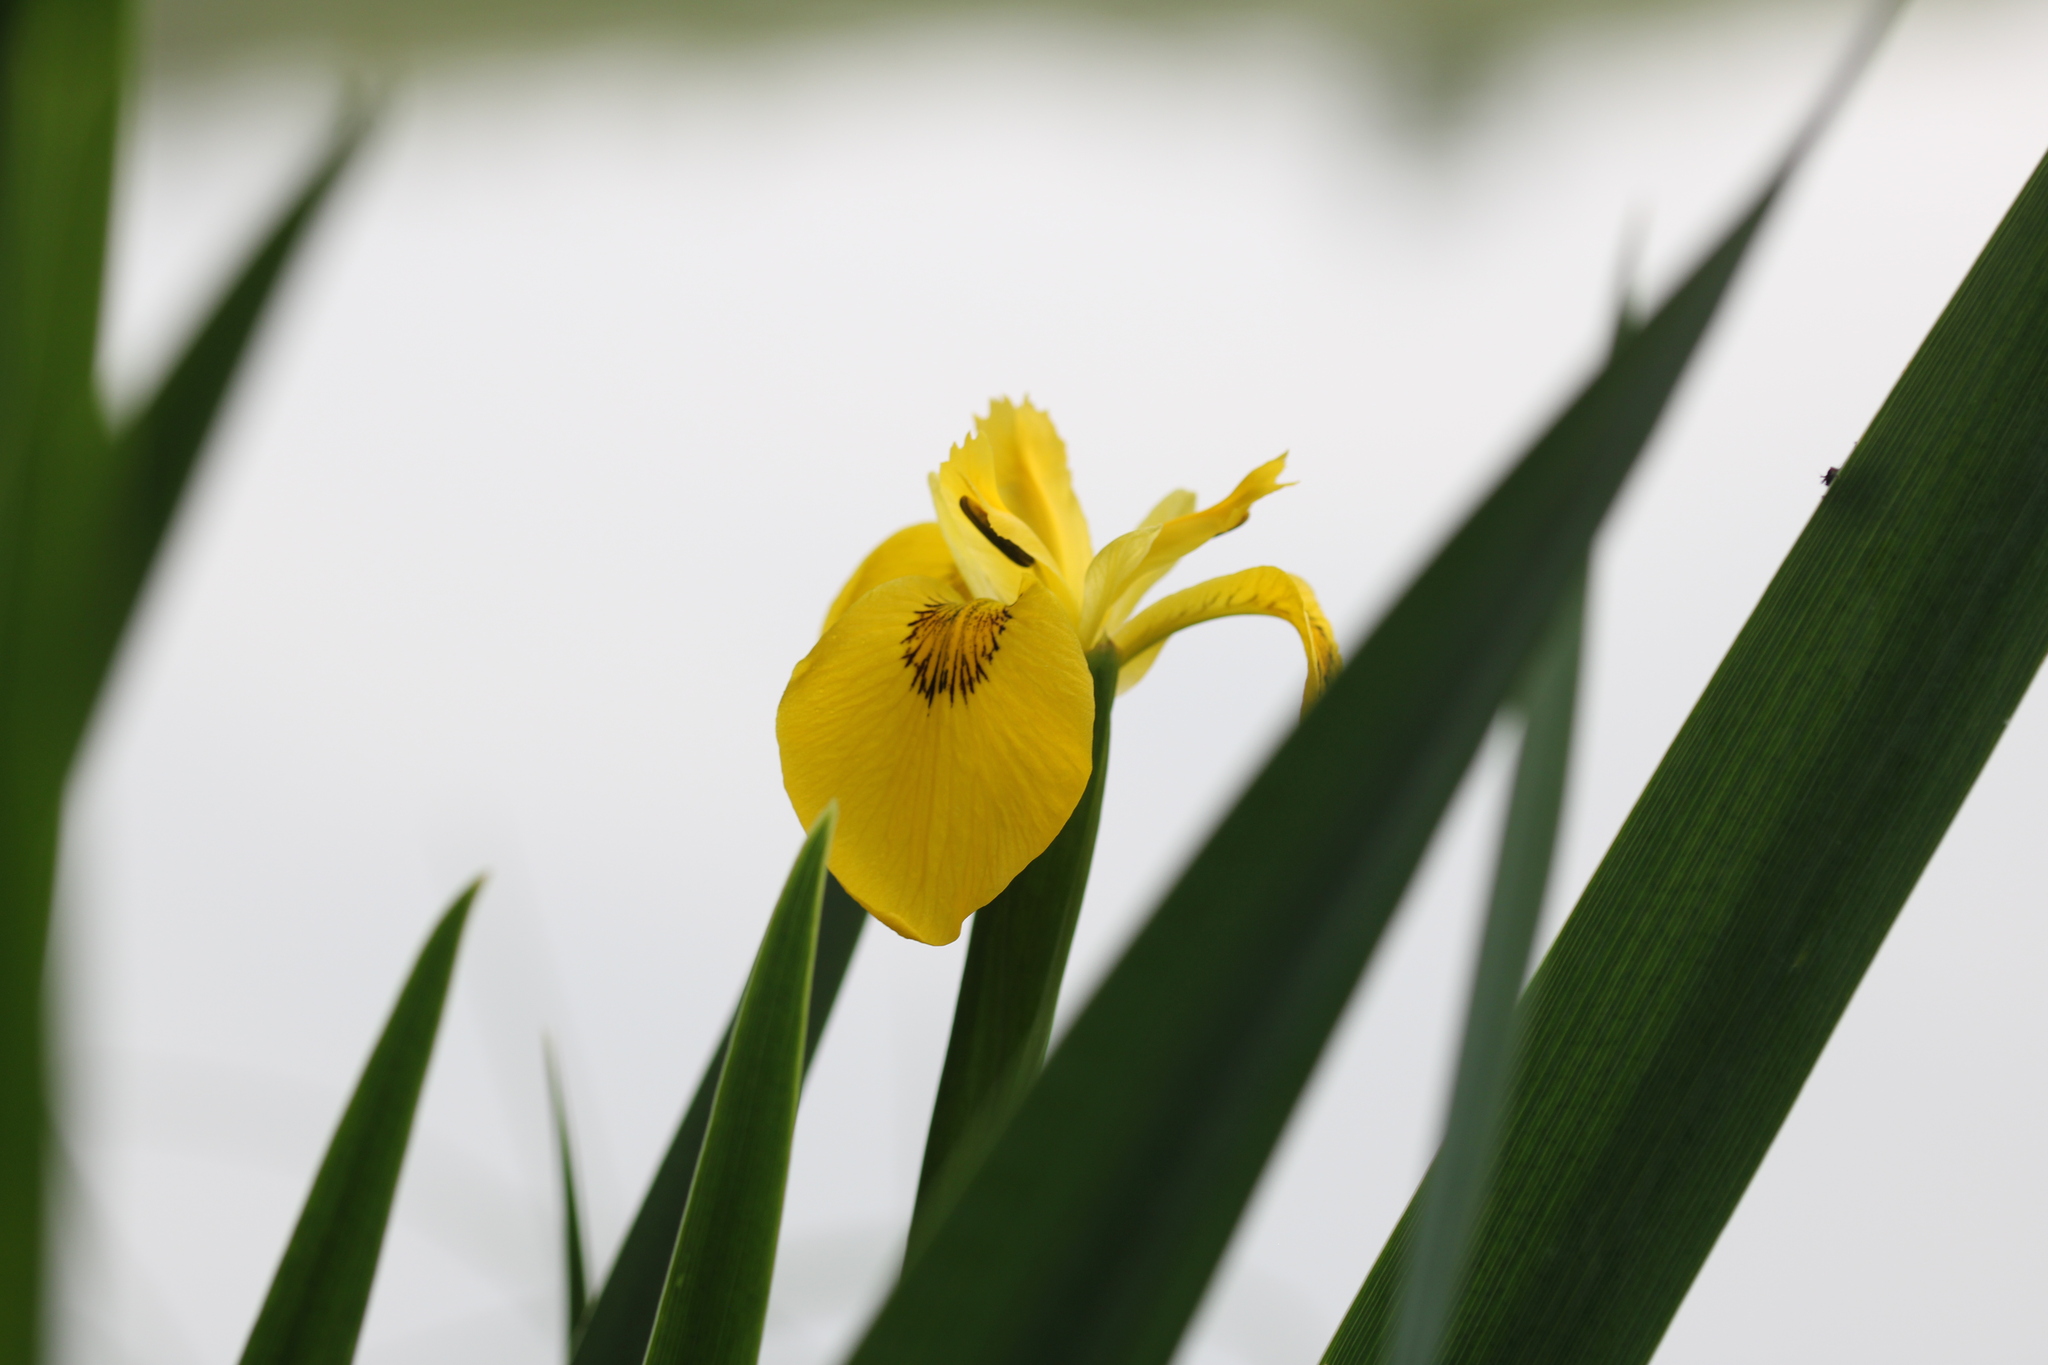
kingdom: Plantae
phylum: Tracheophyta
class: Liliopsida
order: Asparagales
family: Iridaceae
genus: Iris
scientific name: Iris pseudacorus
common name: Yellow flag
